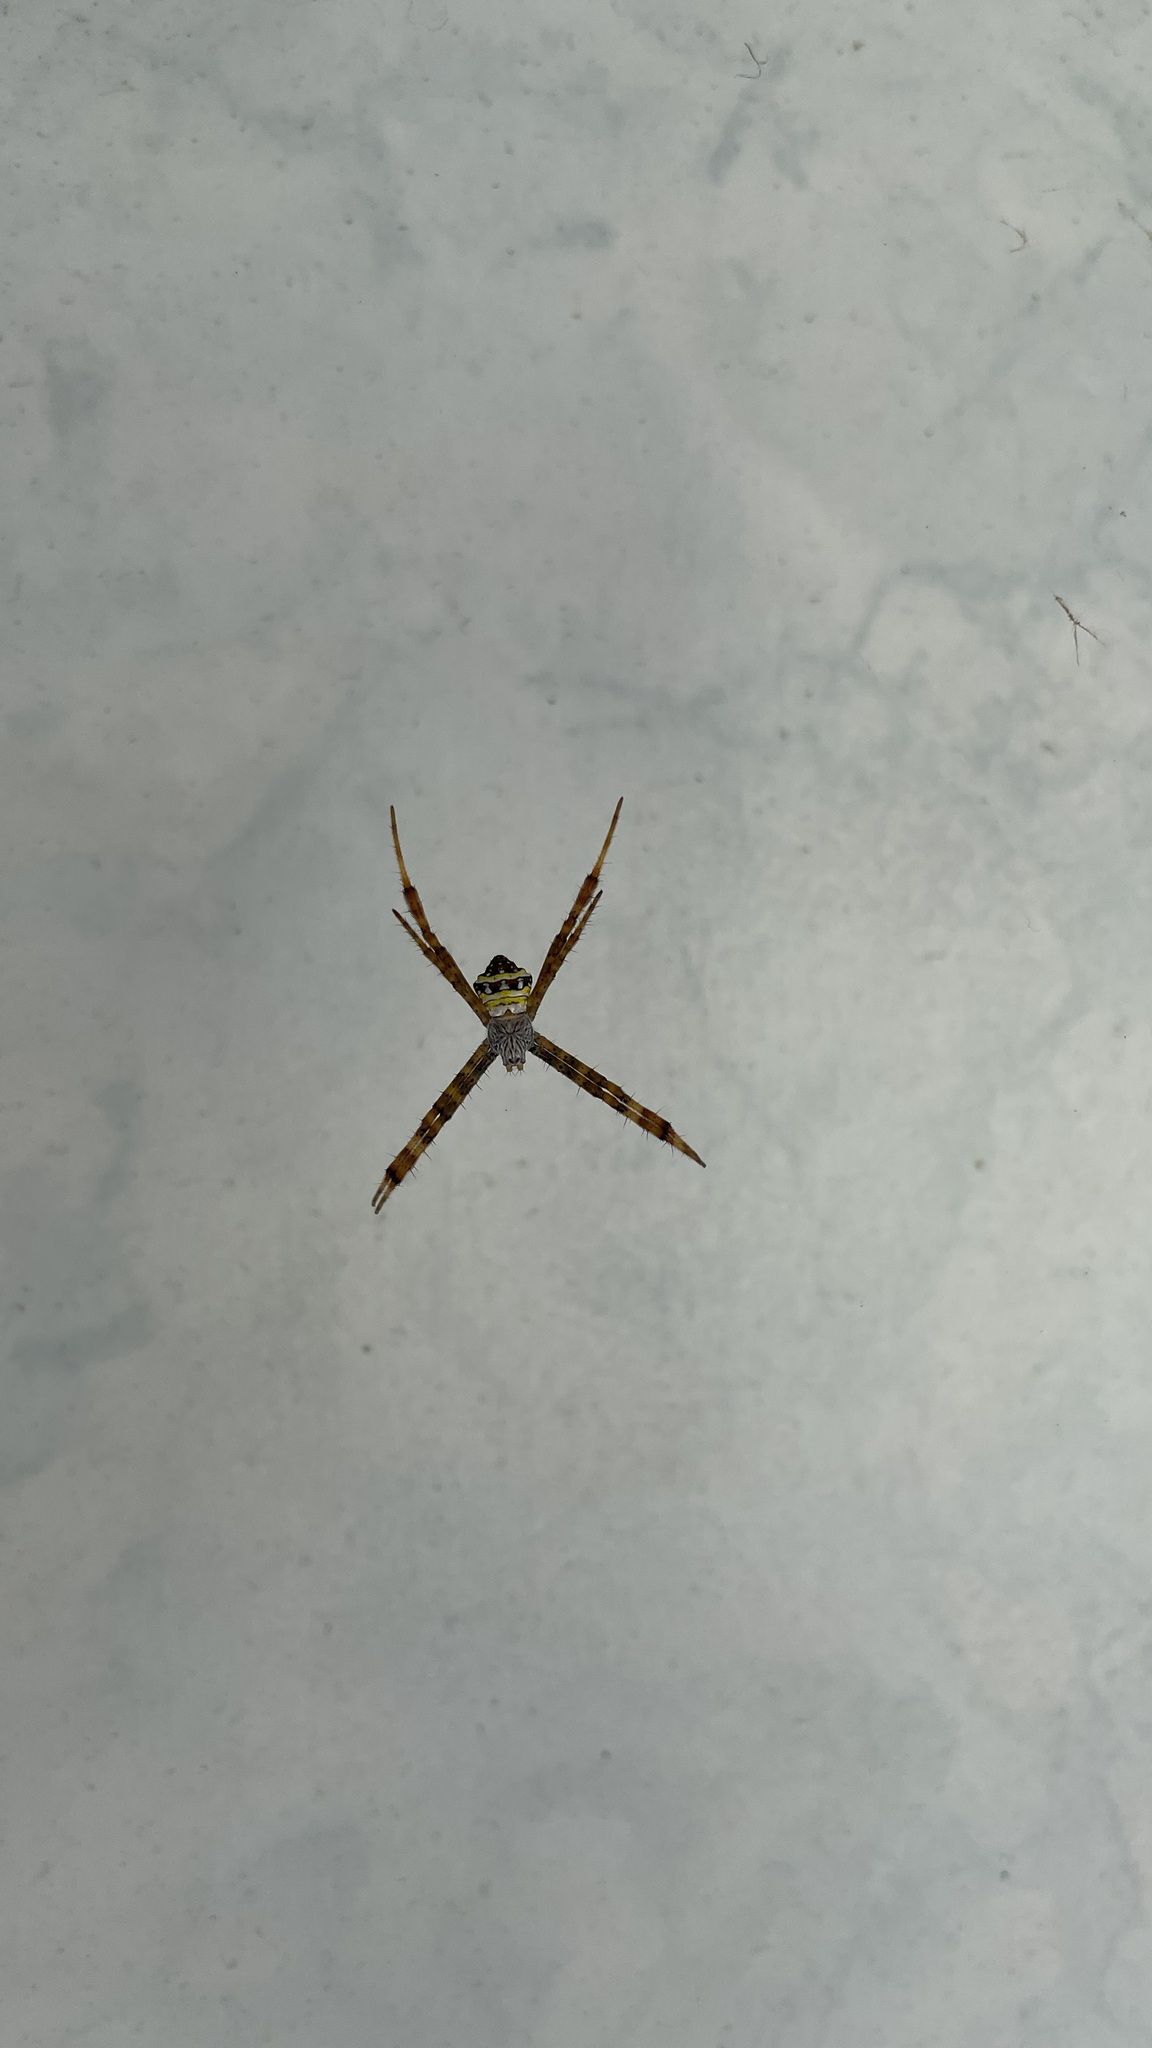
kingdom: Animalia
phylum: Arthropoda
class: Arachnida
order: Araneae
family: Araneidae
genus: Argiope
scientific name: Argiope aetheroides
